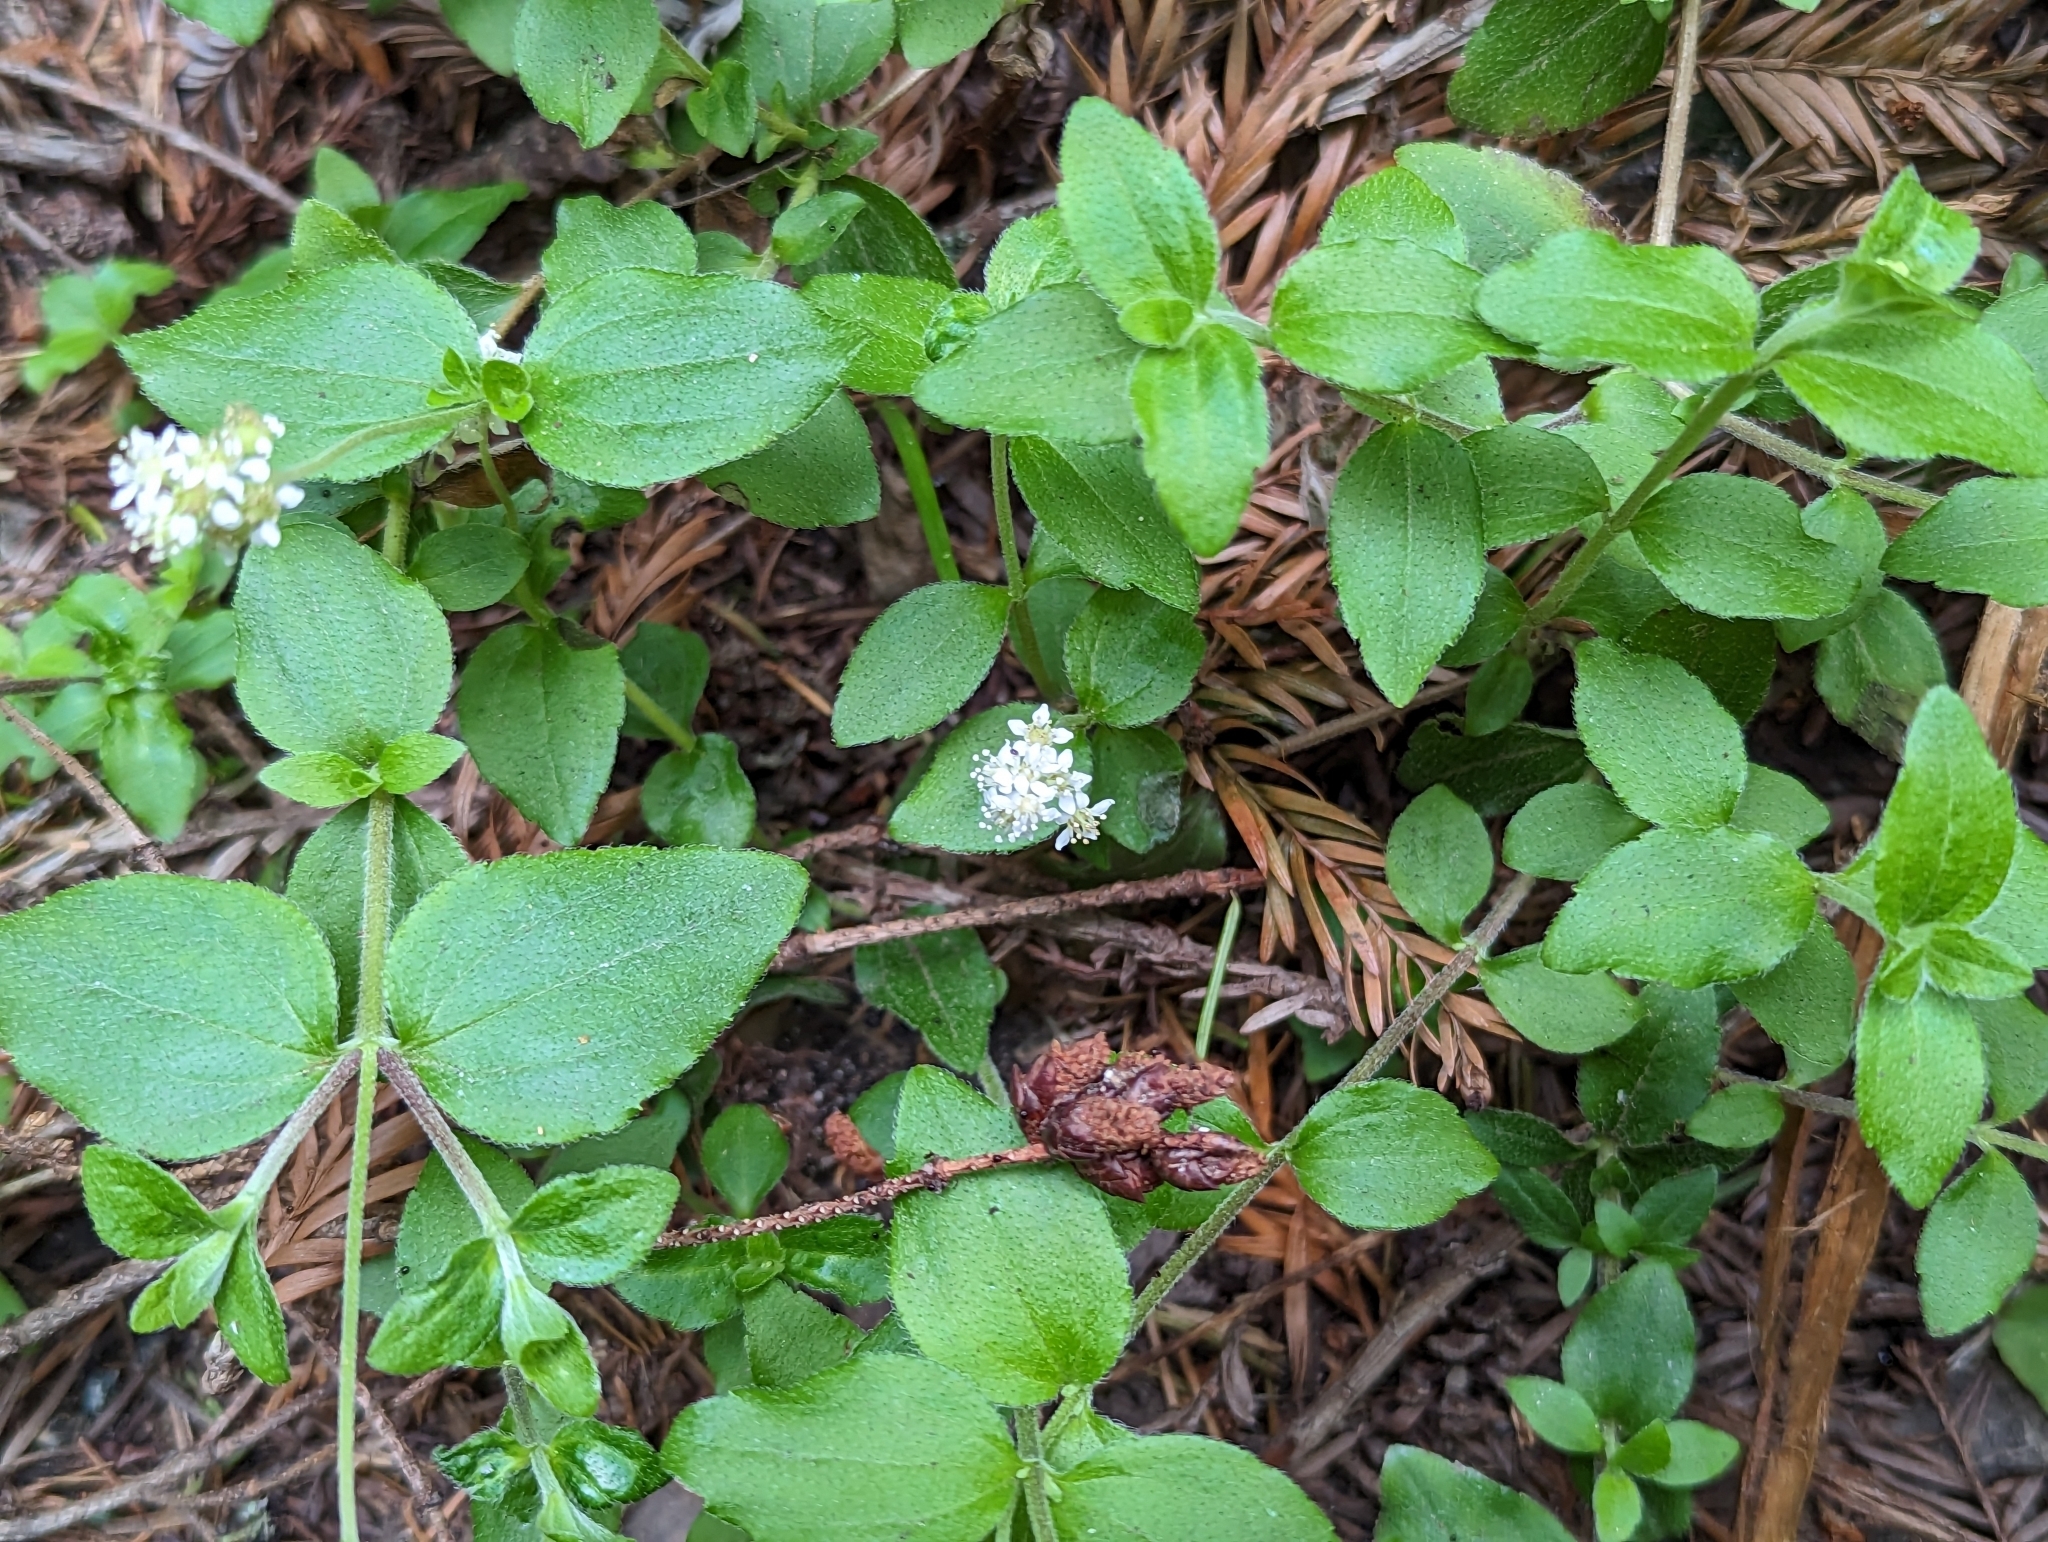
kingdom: Plantae
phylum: Tracheophyta
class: Magnoliopsida
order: Cornales
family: Hydrangeaceae
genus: Whipplea
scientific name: Whipplea modesta
